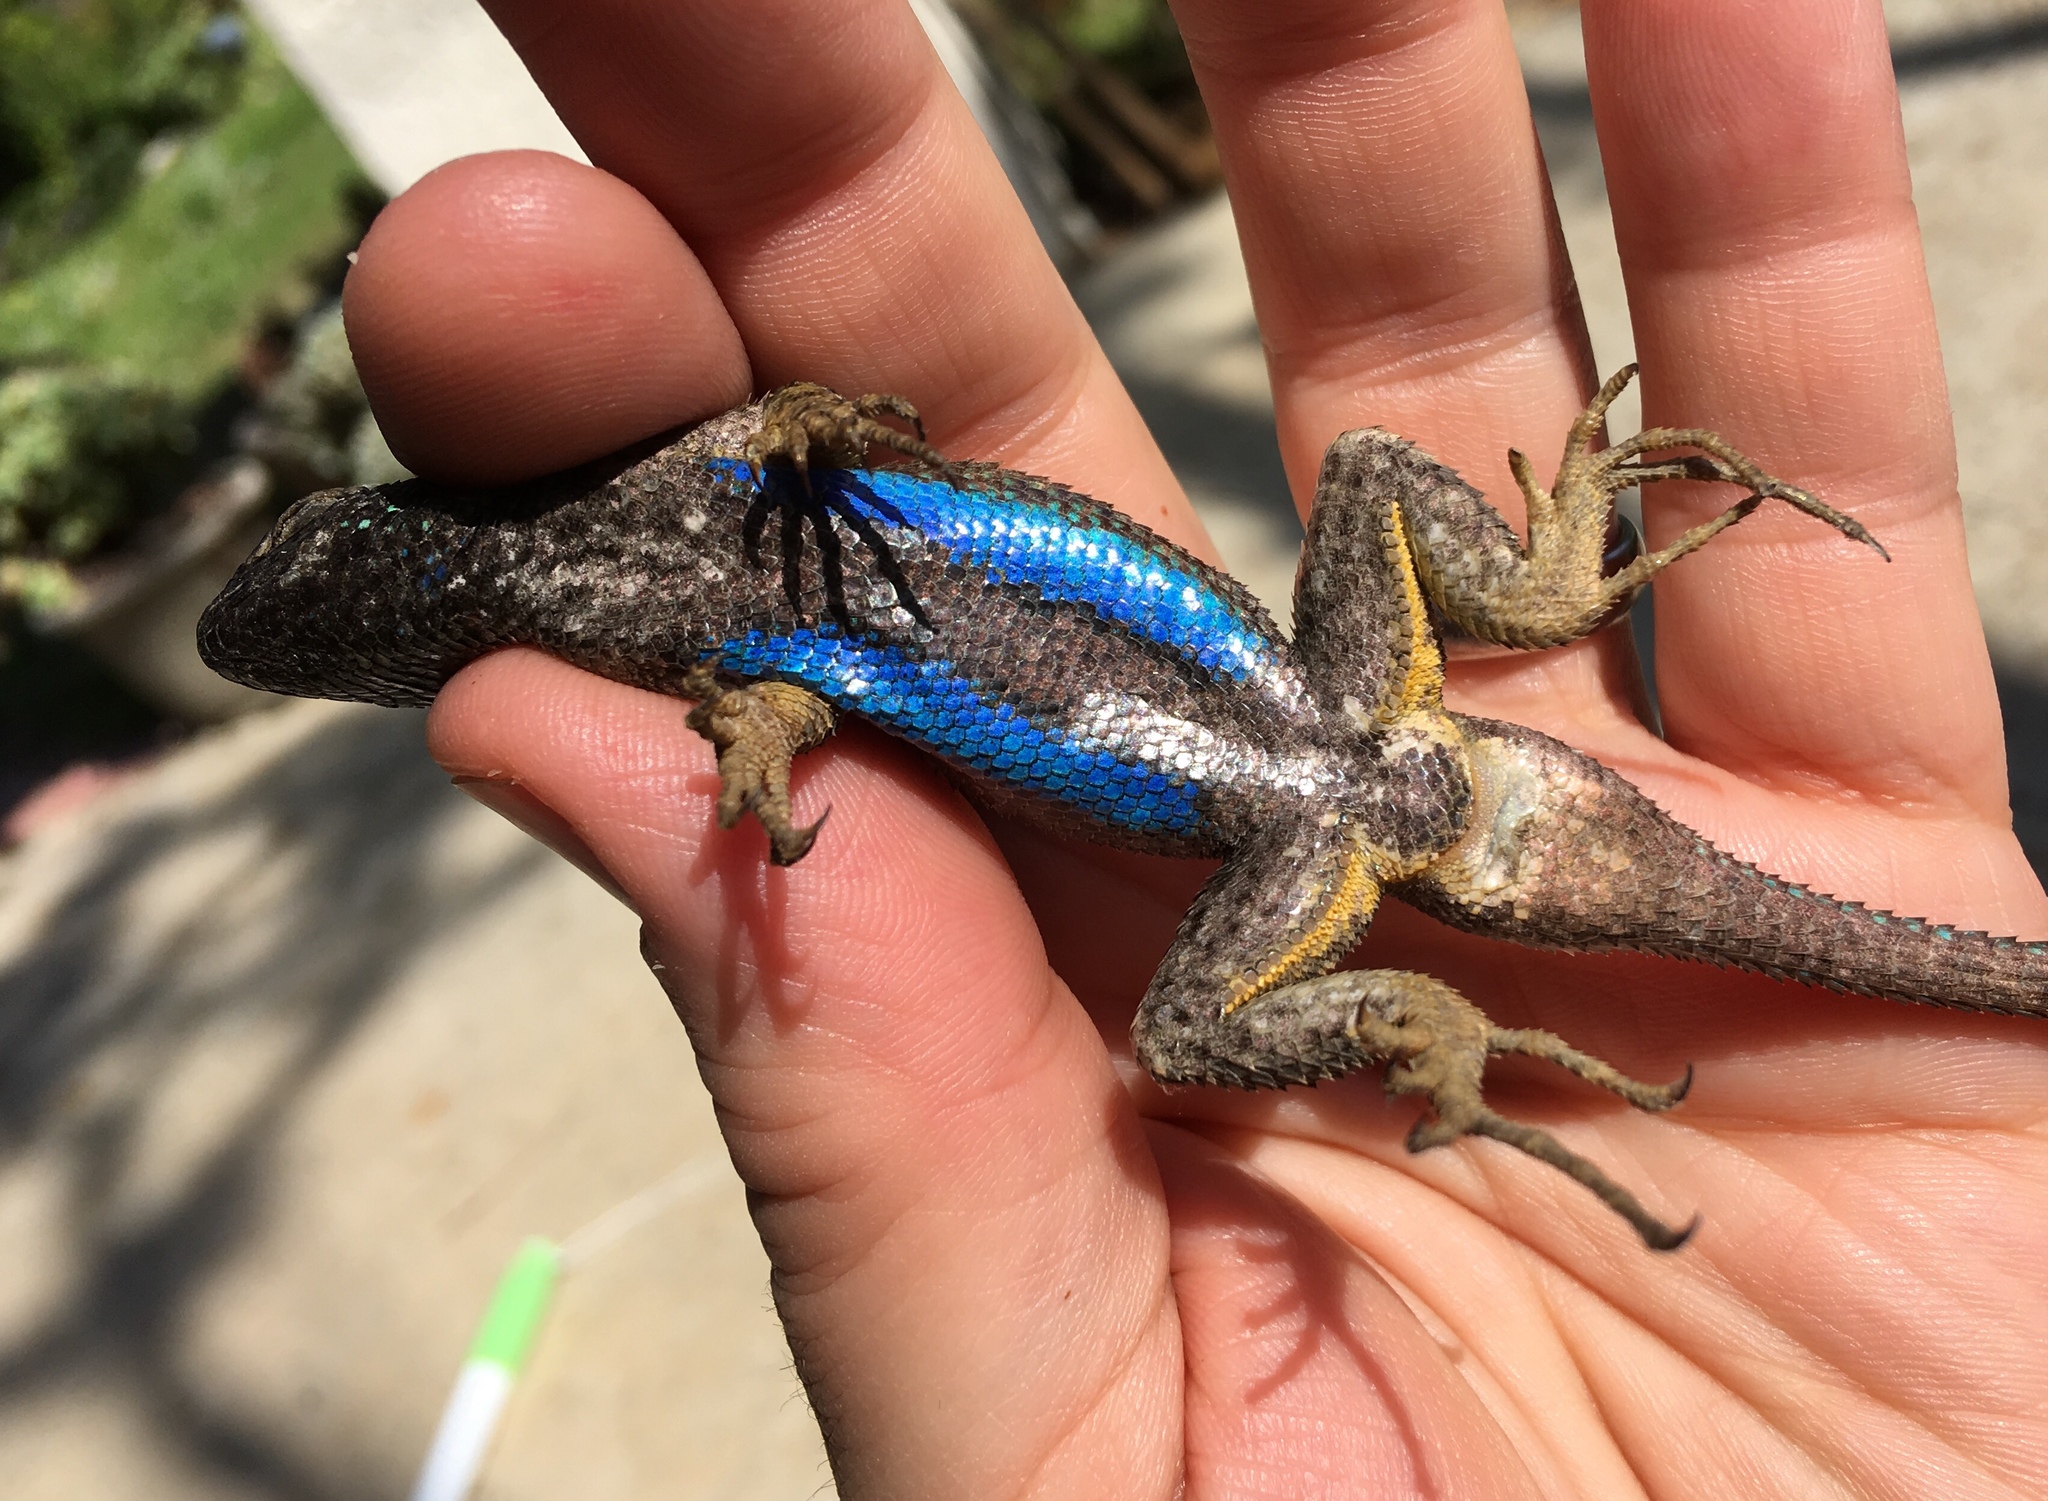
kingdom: Animalia
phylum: Chordata
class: Squamata
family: Phrynosomatidae
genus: Sceloporus
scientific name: Sceloporus occidentalis
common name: Western fence lizard
